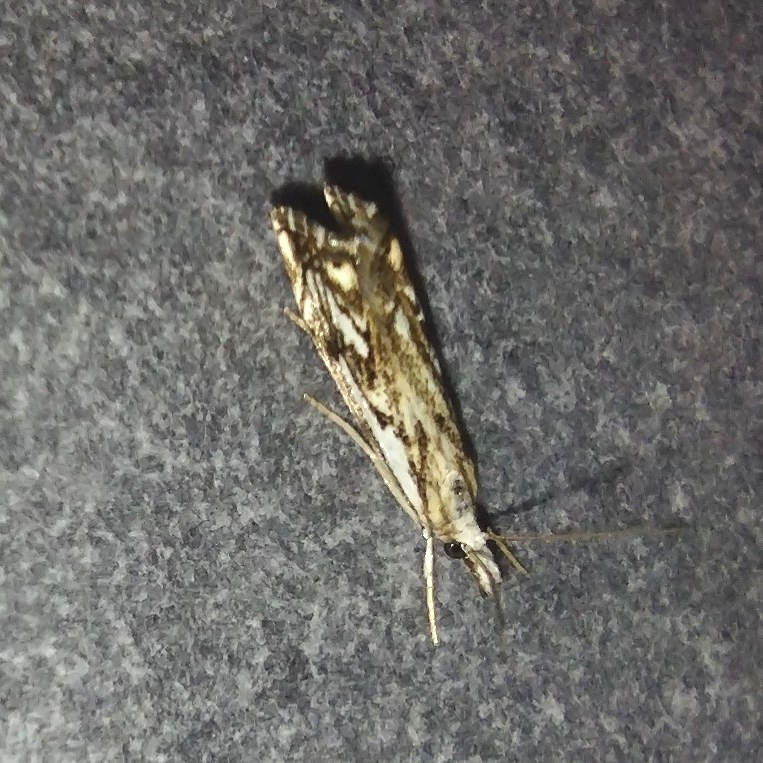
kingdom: Animalia
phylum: Arthropoda
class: Insecta
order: Lepidoptera
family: Crambidae
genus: Catoptria
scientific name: Catoptria falsella
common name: Chequered grass-veneer
